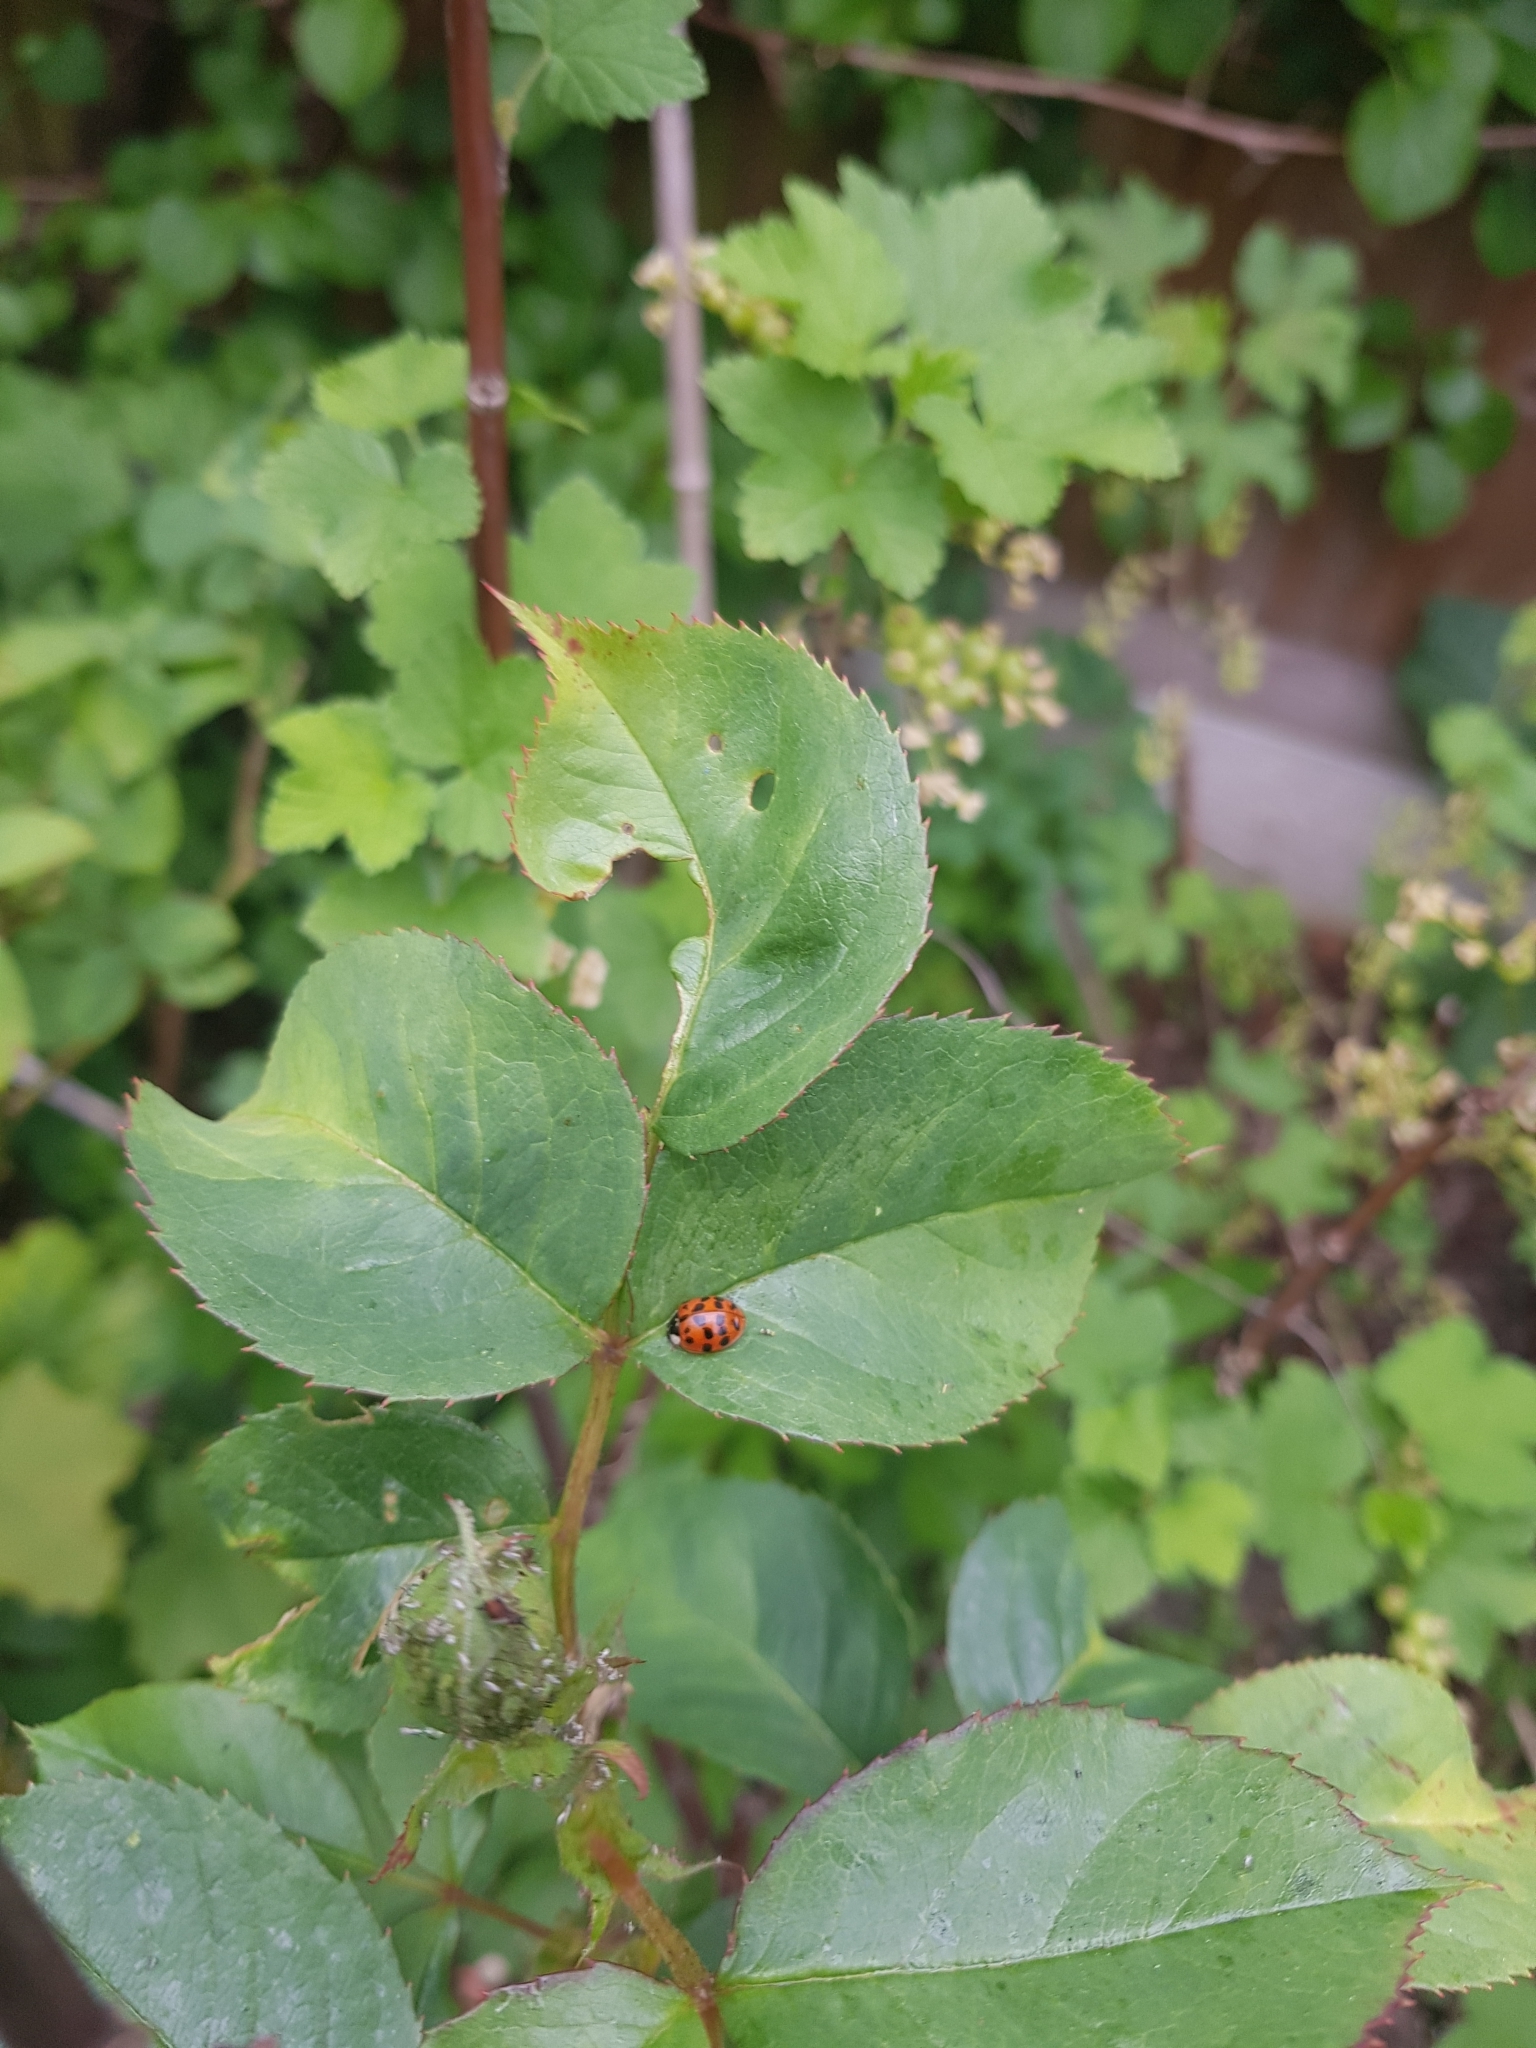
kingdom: Animalia
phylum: Arthropoda
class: Insecta
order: Coleoptera
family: Coccinellidae
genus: Harmonia
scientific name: Harmonia axyridis
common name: Harlequin ladybird
